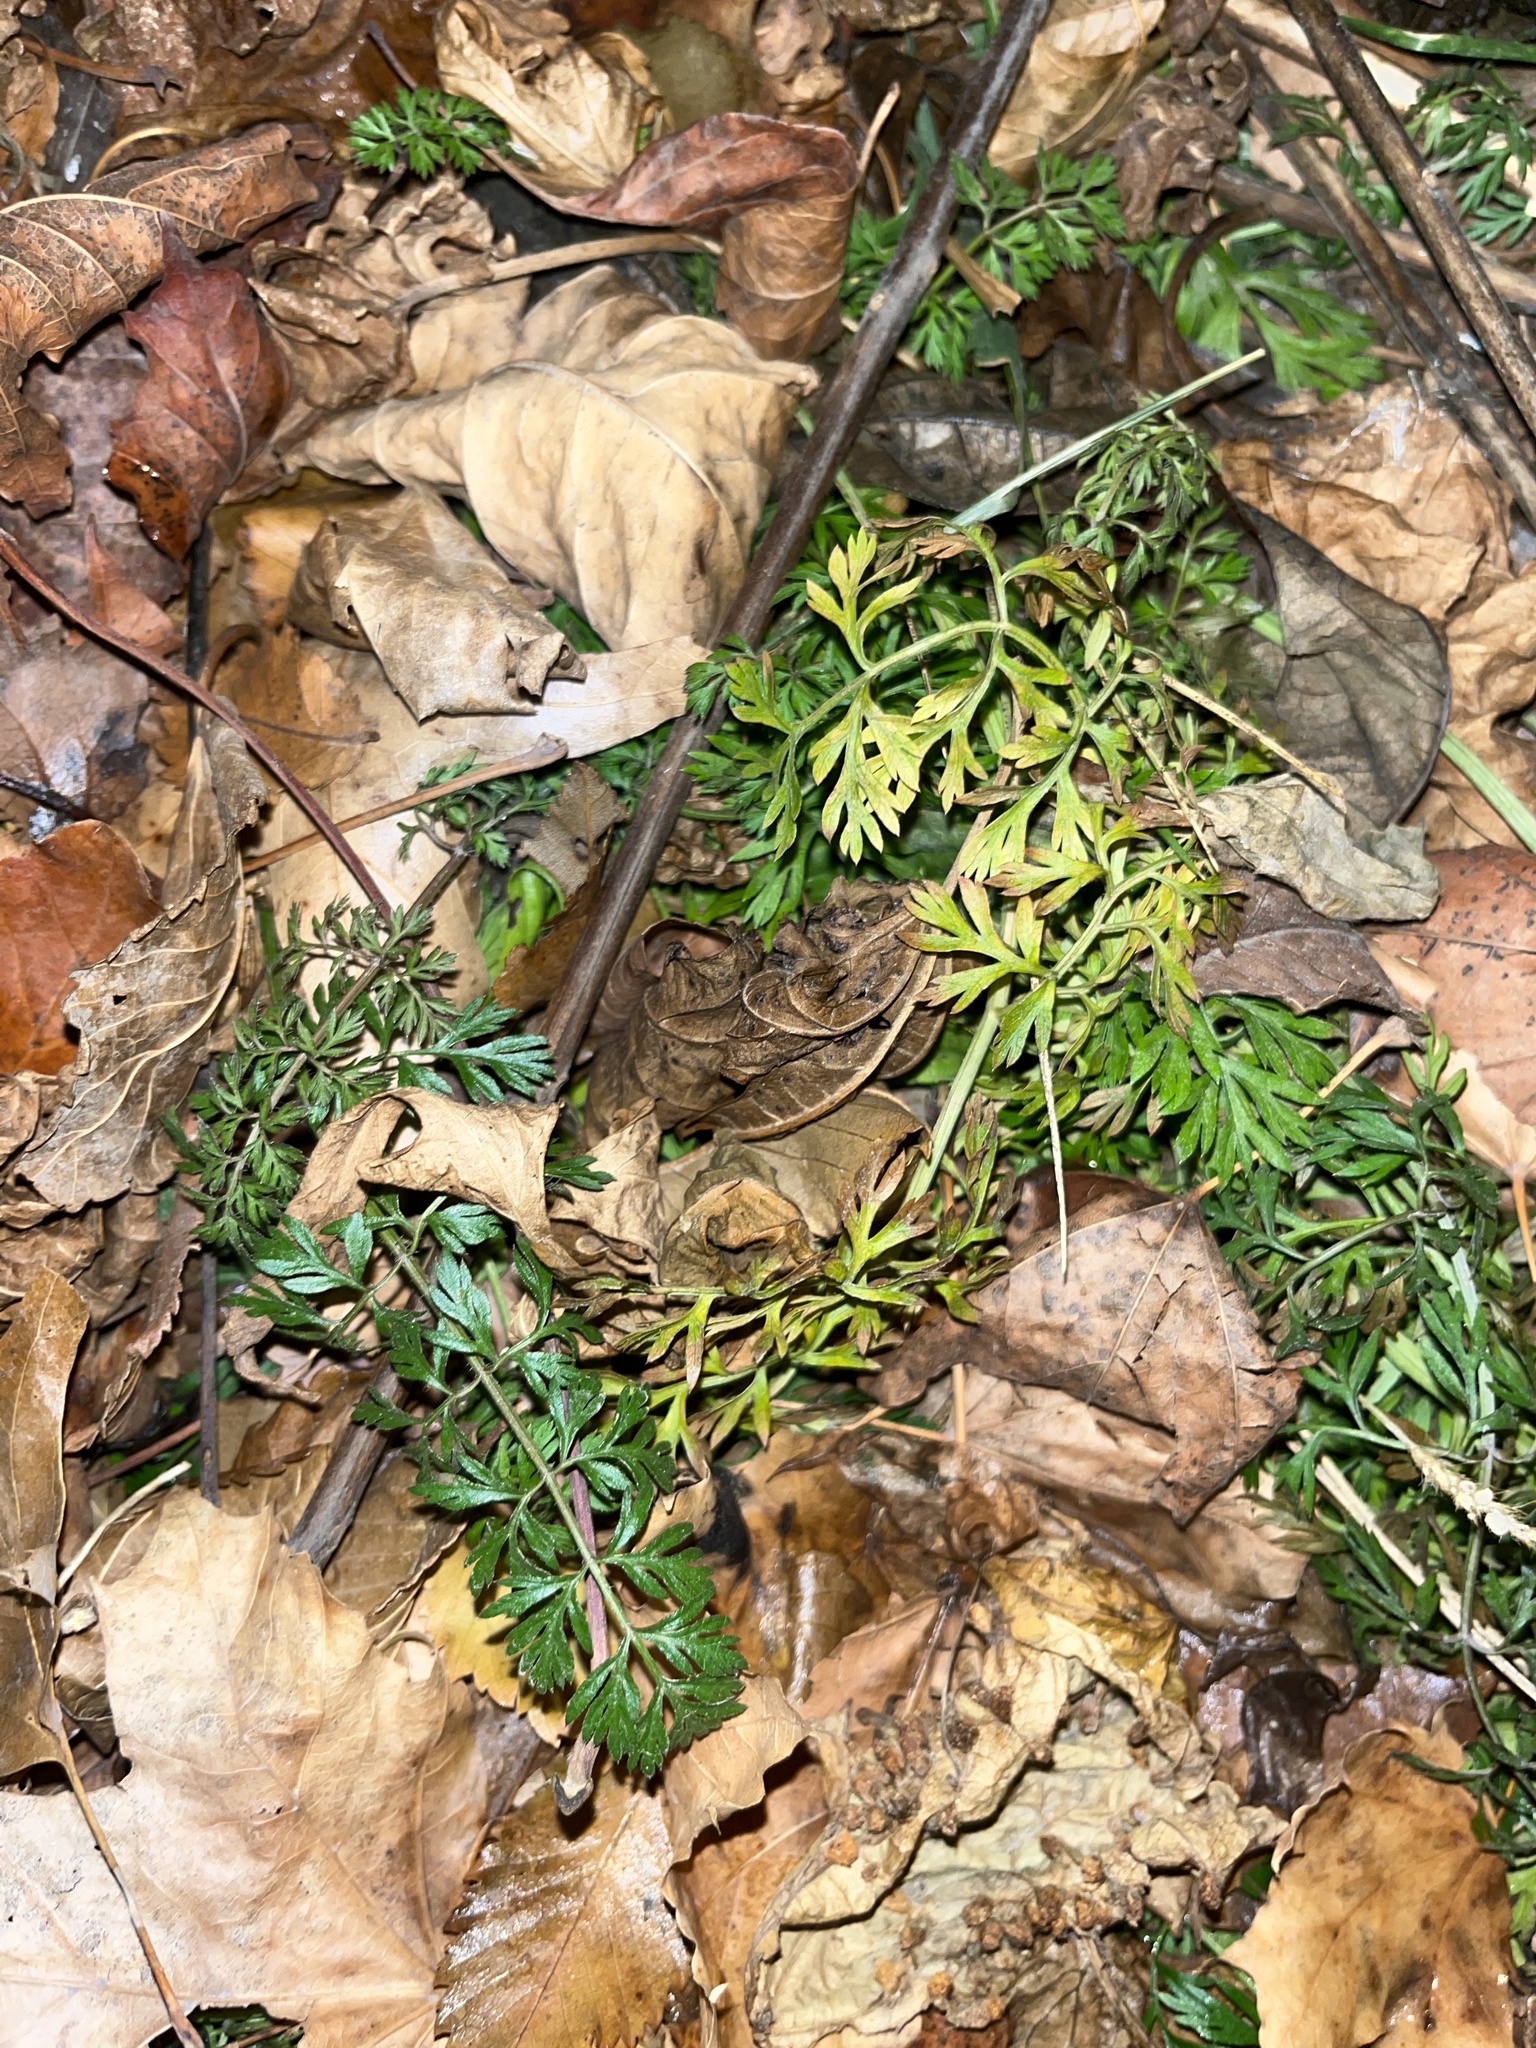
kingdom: Plantae
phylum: Tracheophyta
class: Magnoliopsida
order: Apiales
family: Apiaceae
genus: Daucus
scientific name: Daucus carota
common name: Wild carrot
